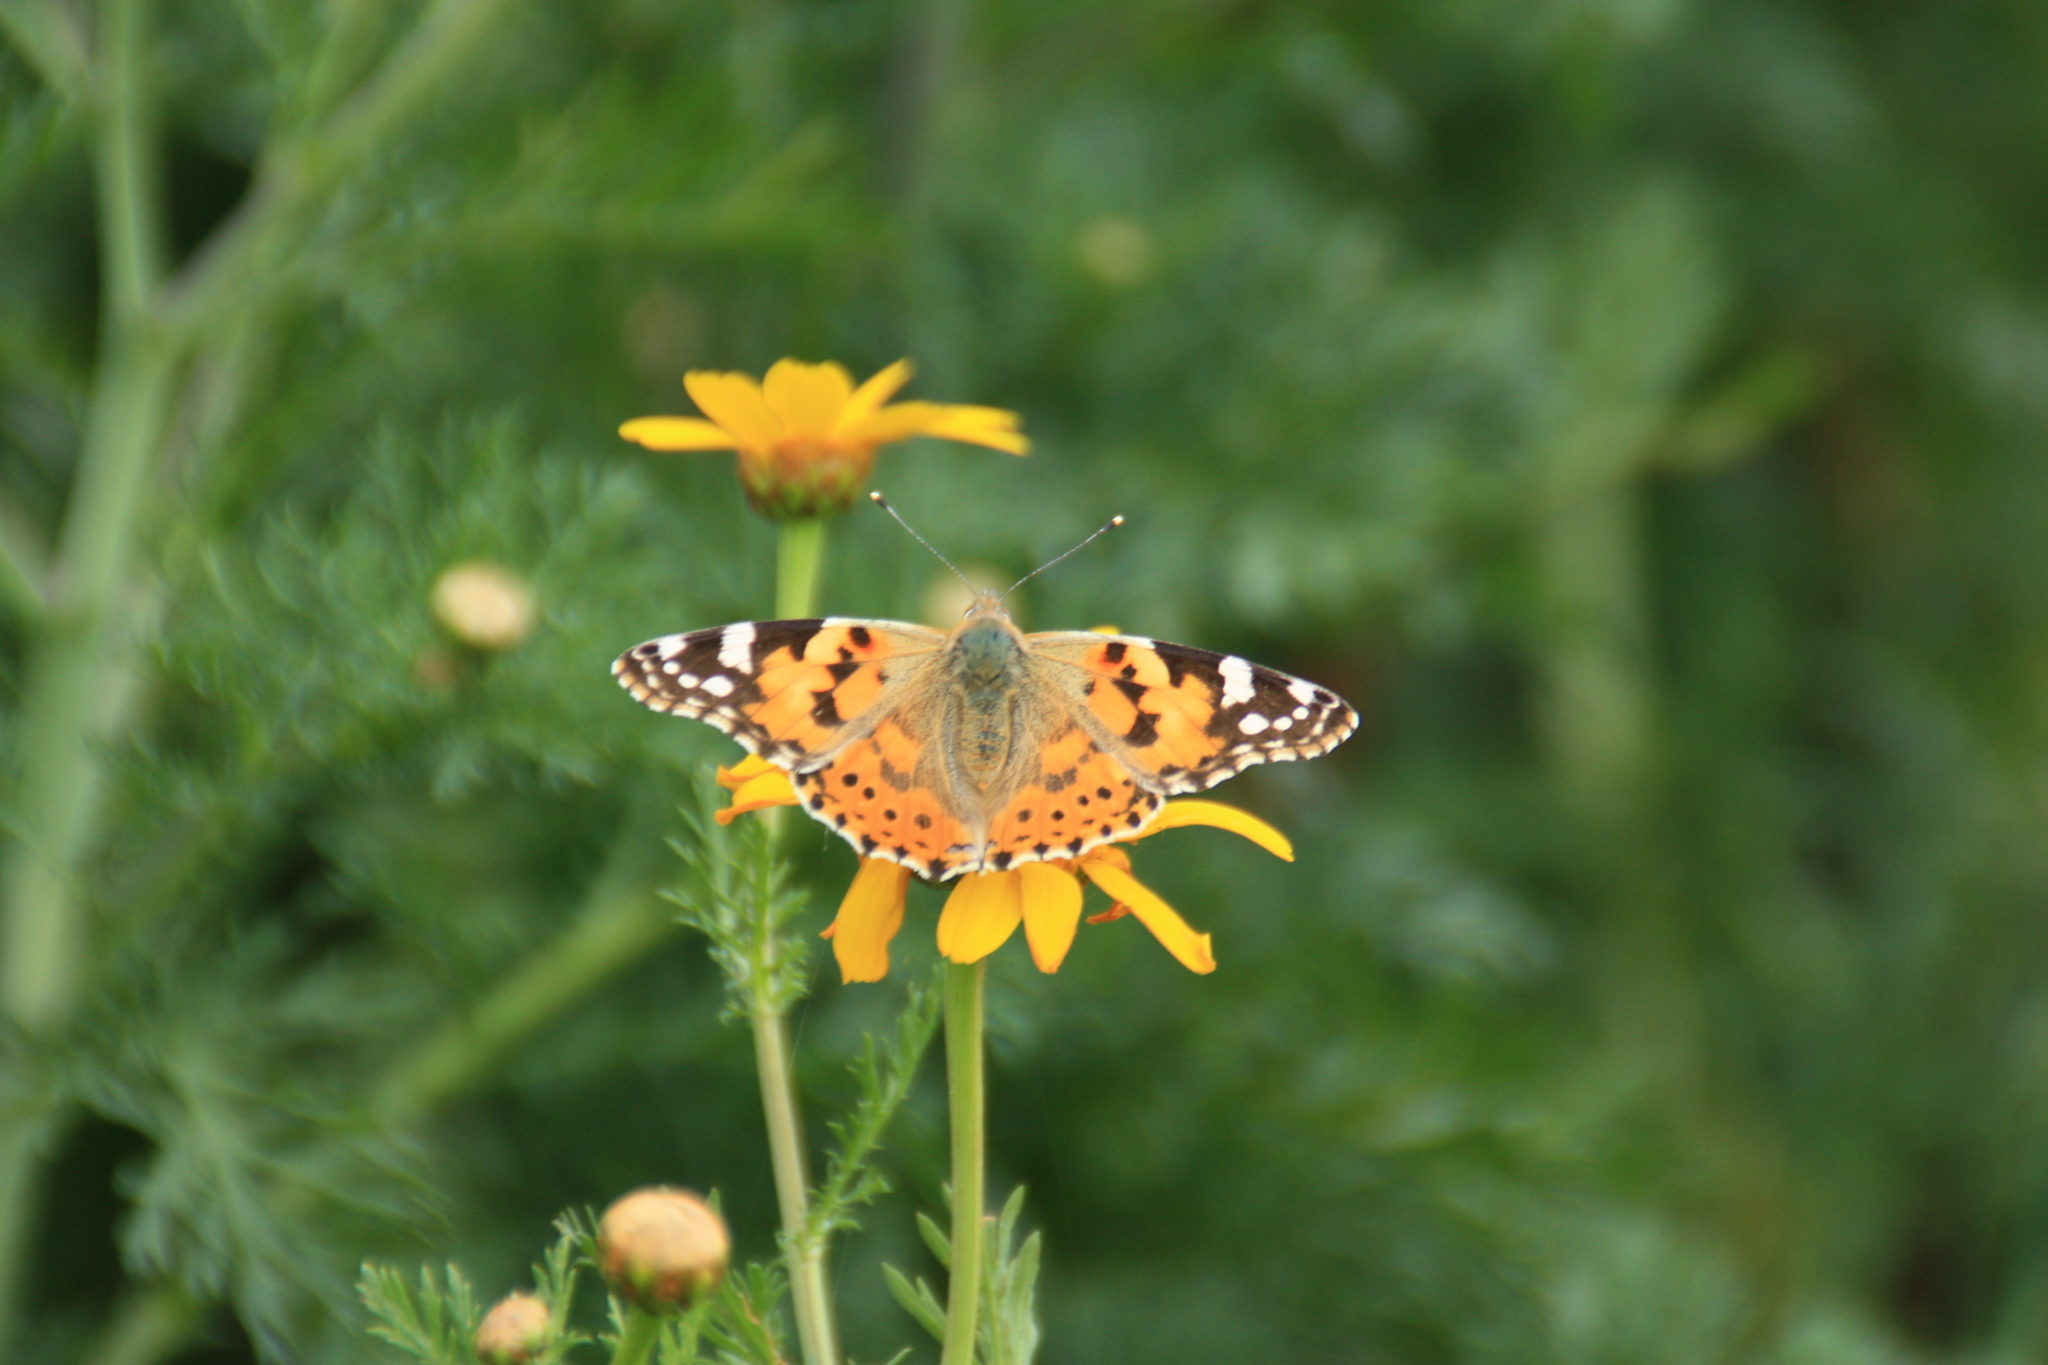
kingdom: Animalia
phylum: Arthropoda
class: Insecta
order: Lepidoptera
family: Nymphalidae
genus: Vanessa
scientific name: Vanessa cardui
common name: Painted lady
